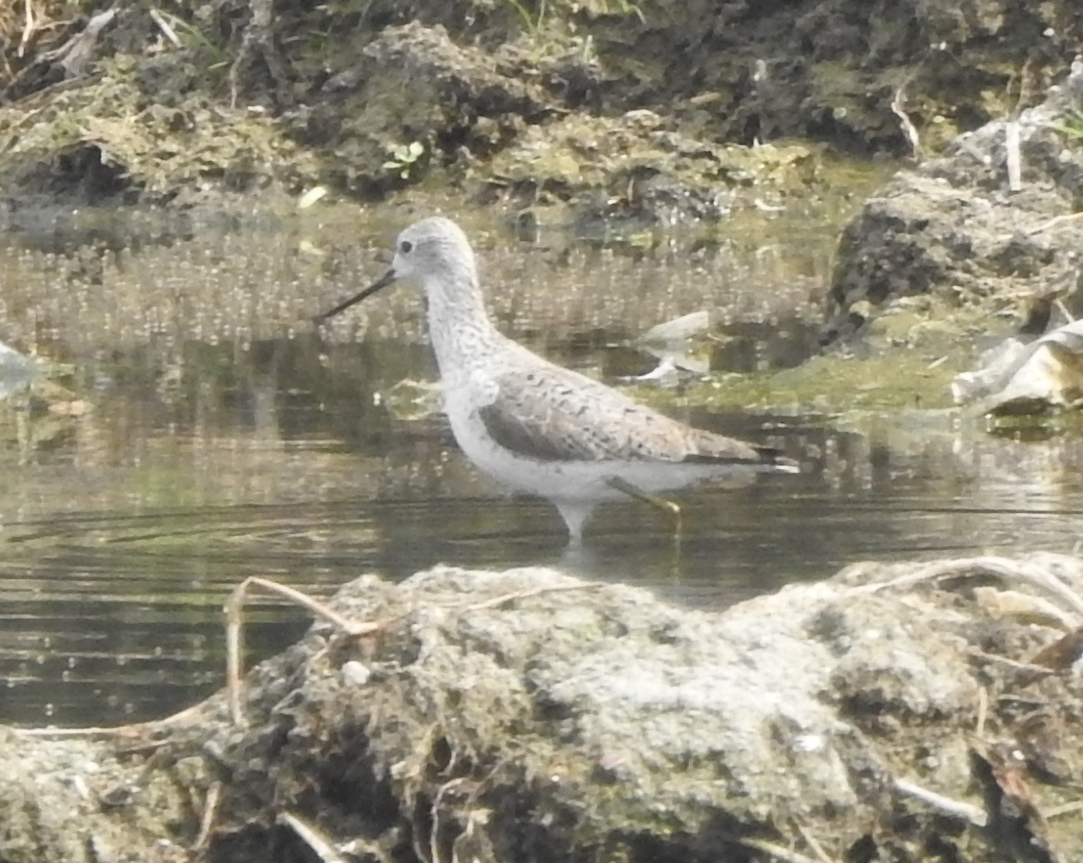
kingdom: Animalia
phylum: Chordata
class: Aves
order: Charadriiformes
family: Scolopacidae
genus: Tringa
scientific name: Tringa stagnatilis
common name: Marsh sandpiper
